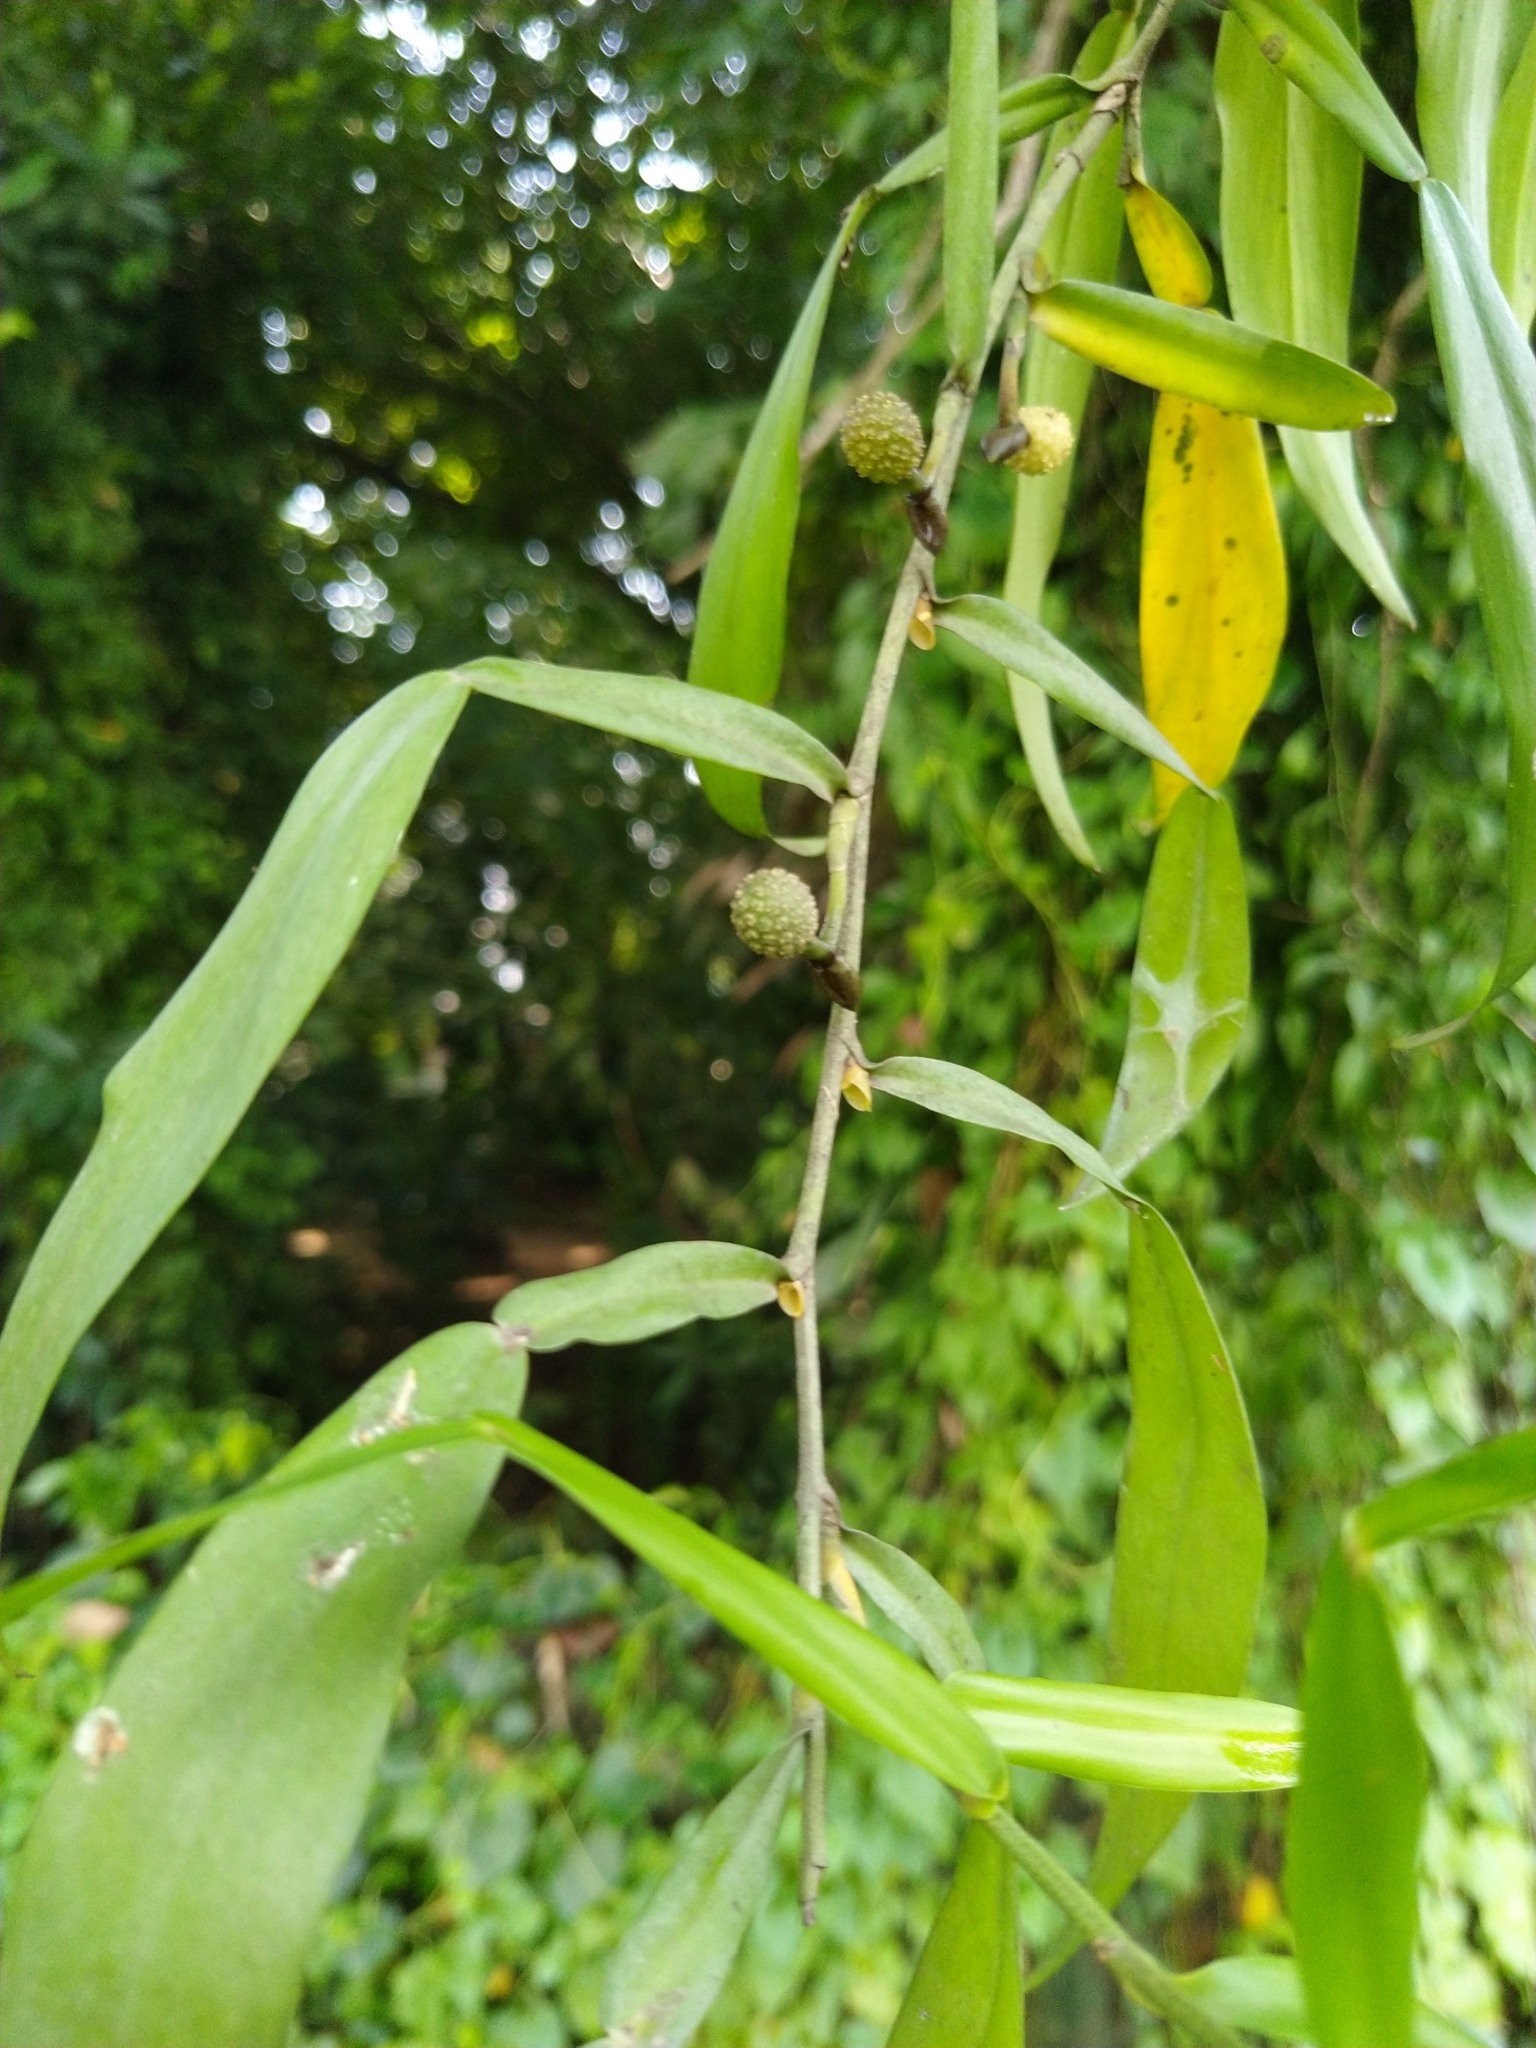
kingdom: Plantae
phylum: Tracheophyta
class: Liliopsida
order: Alismatales
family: Araceae
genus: Pothos
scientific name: Pothos chinensis
